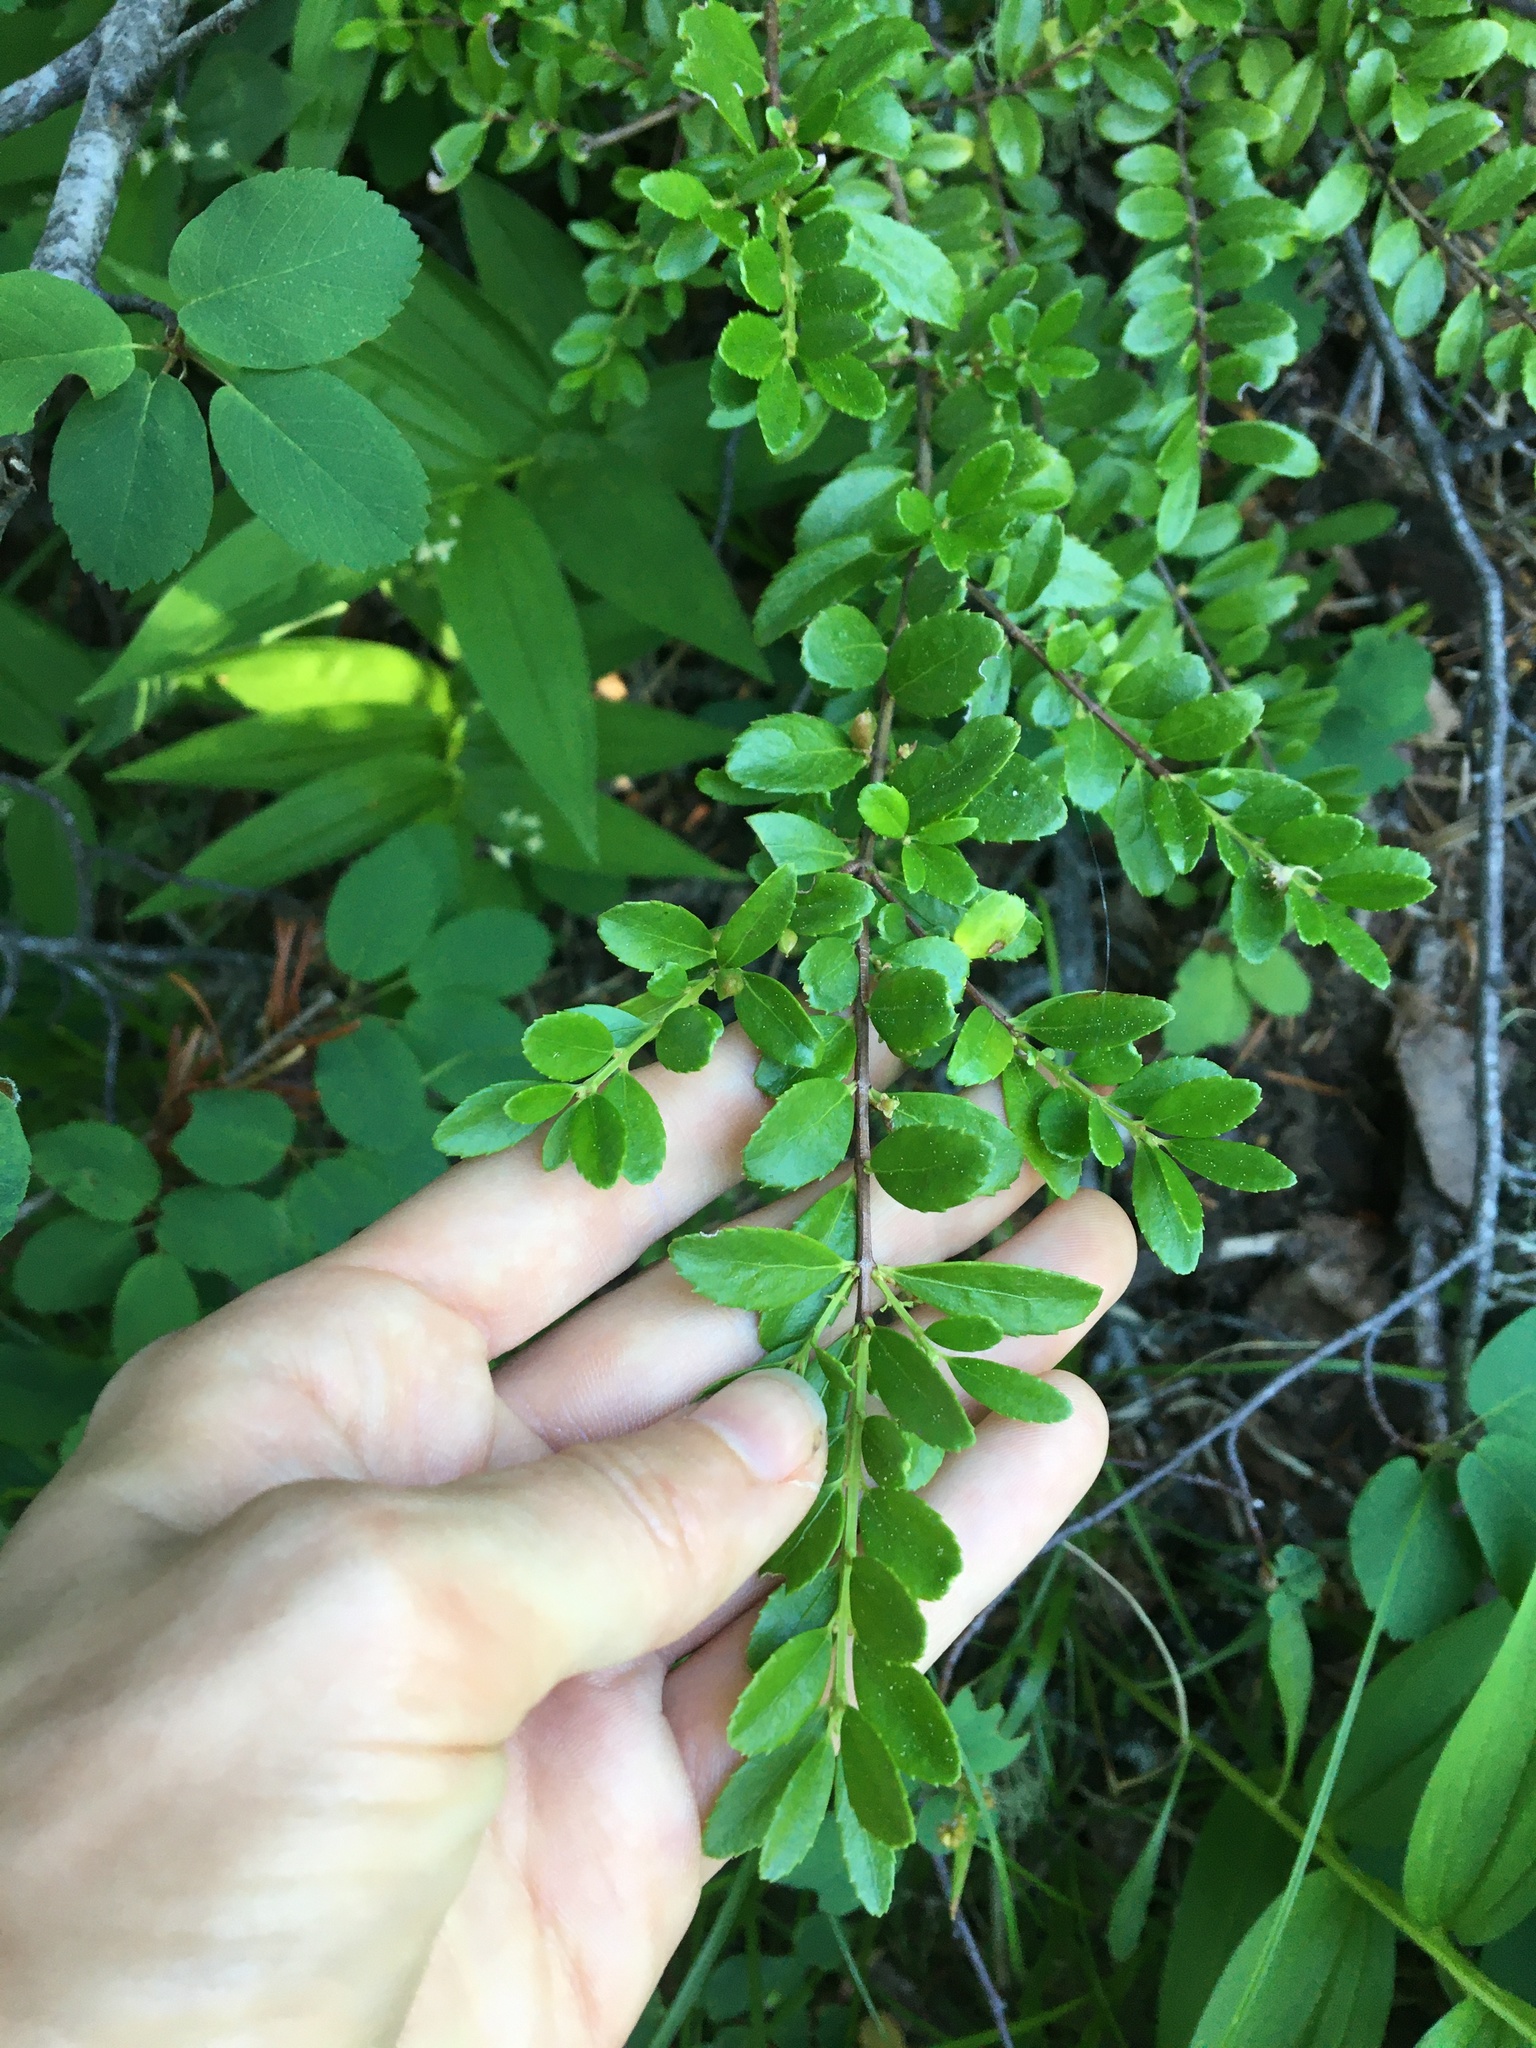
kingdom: Plantae
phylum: Tracheophyta
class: Magnoliopsida
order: Celastrales
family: Celastraceae
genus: Paxistima
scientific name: Paxistima myrsinites
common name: Mountain-lover
